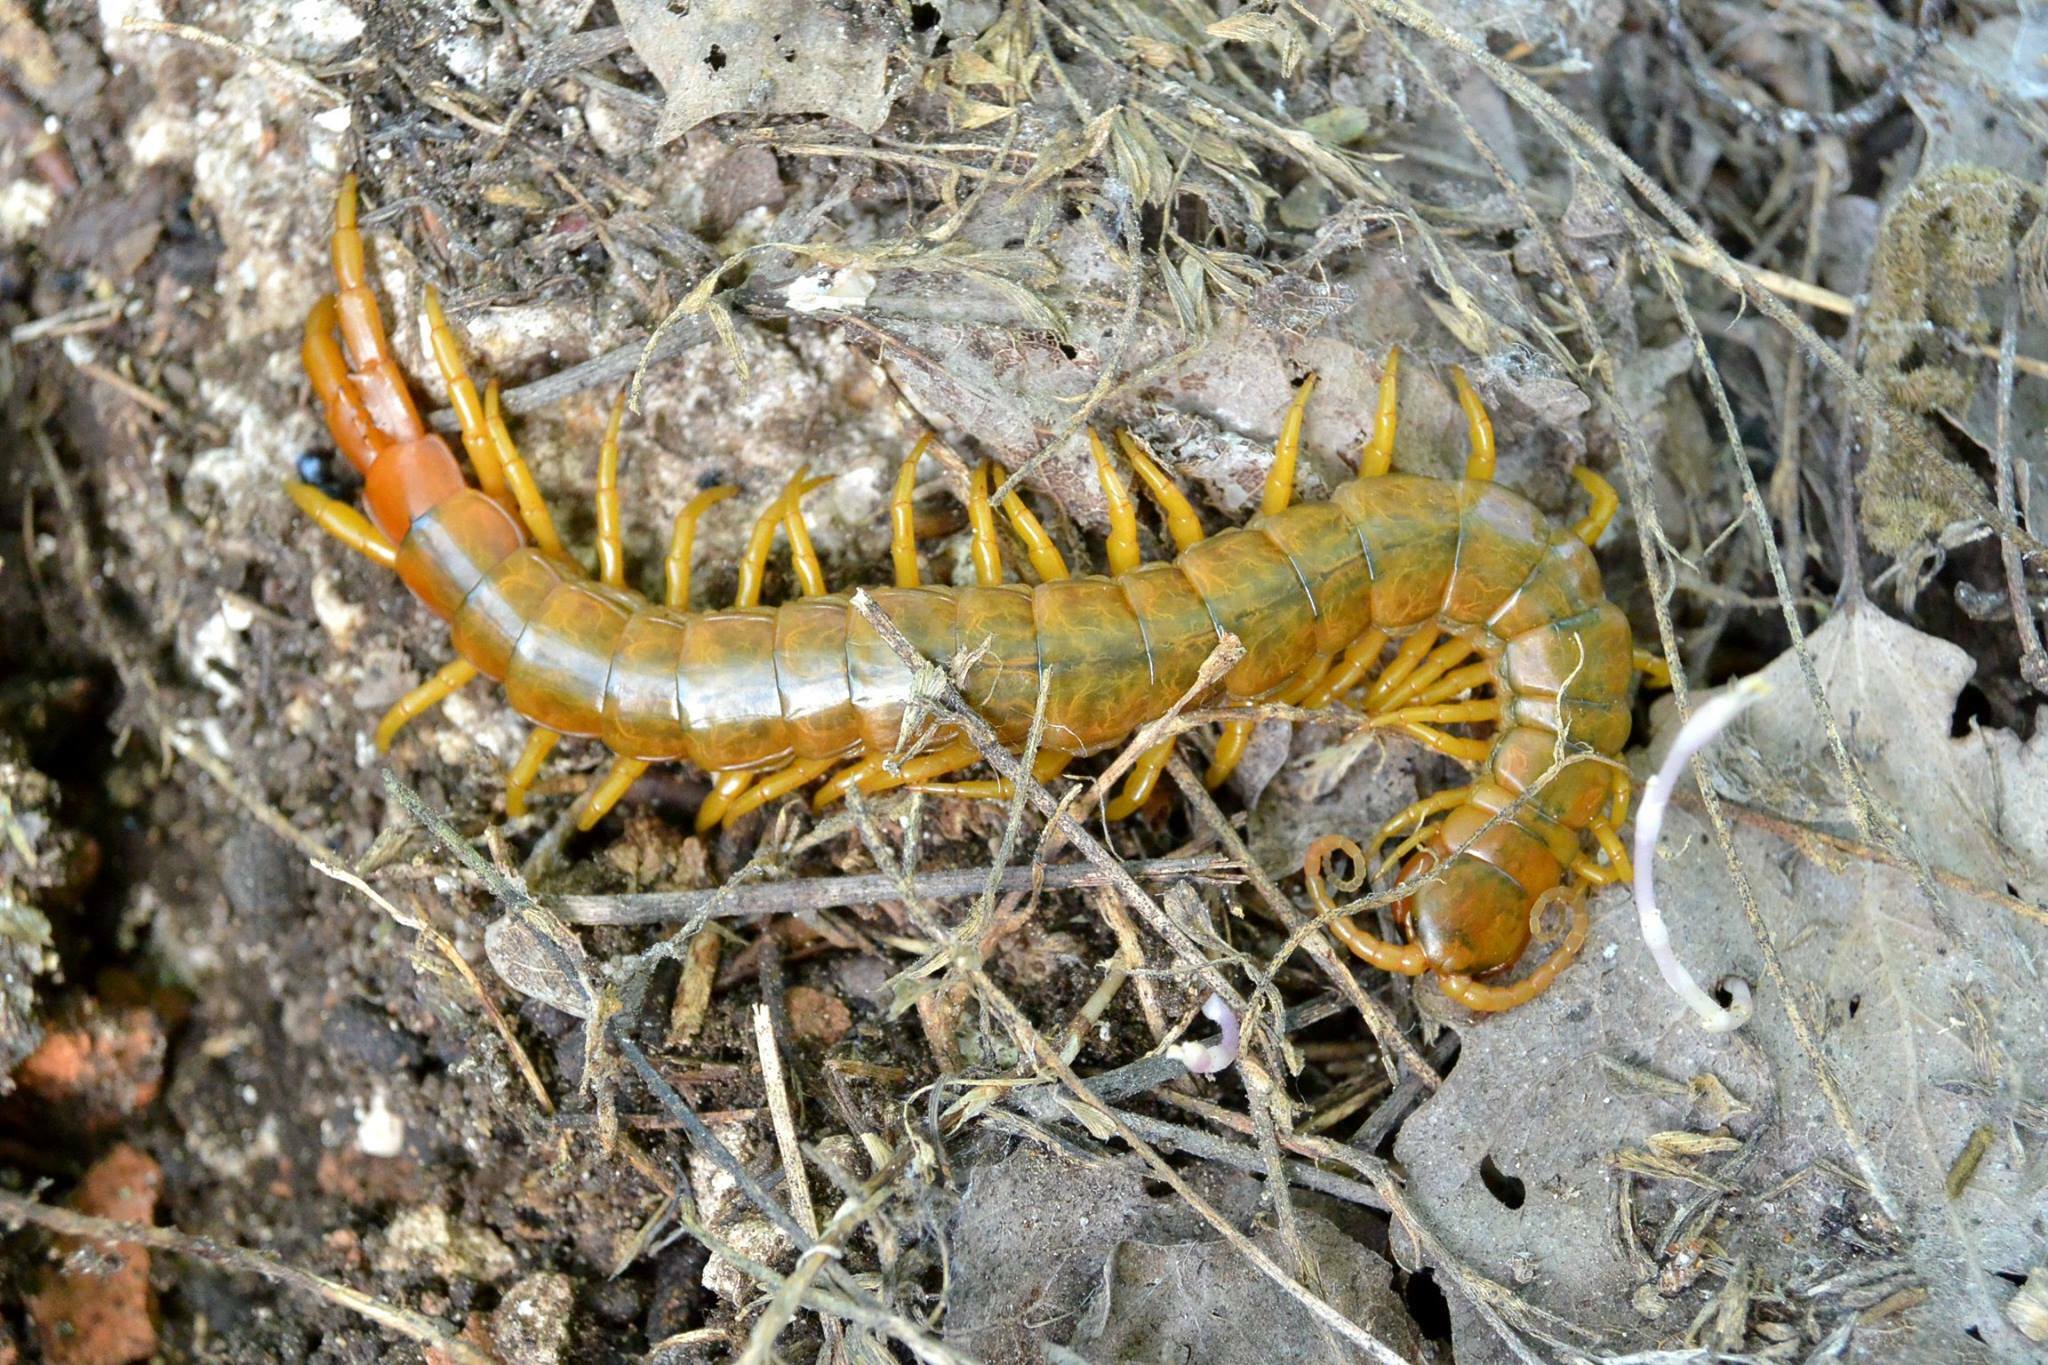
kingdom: Animalia
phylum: Arthropoda
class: Chilopoda
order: Scolopendromorpha
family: Scolopendridae
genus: Scolopendra
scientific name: Scolopendra cingulata
